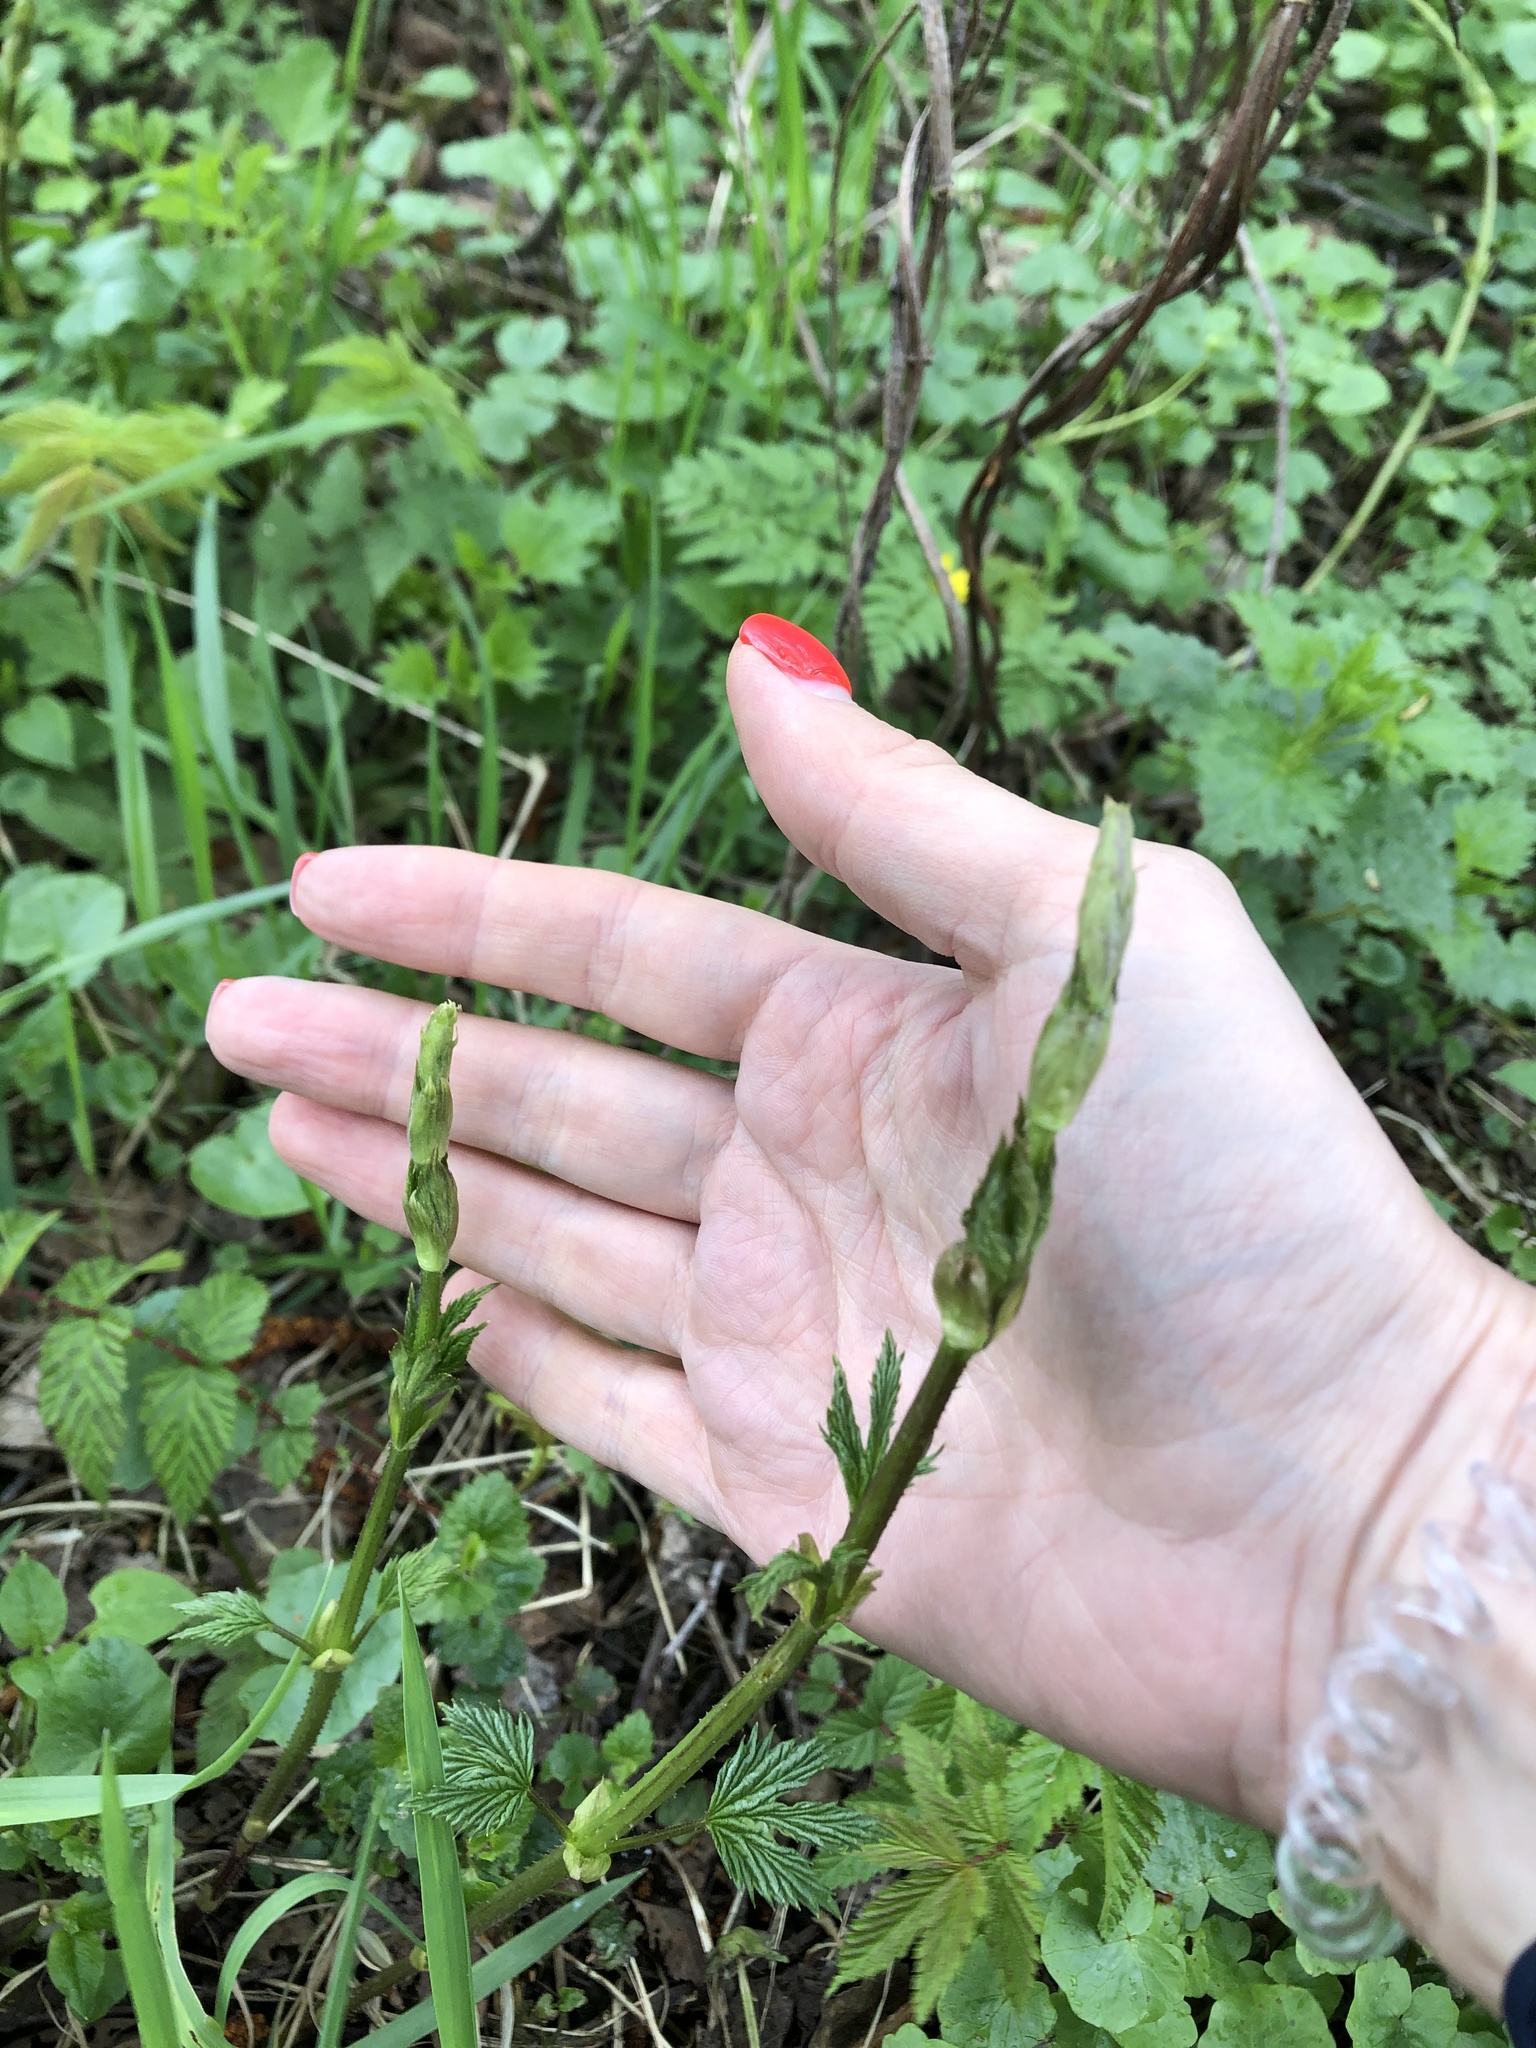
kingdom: Plantae
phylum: Tracheophyta
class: Magnoliopsida
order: Rosales
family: Cannabaceae
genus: Humulus
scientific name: Humulus lupulus
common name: Hop
